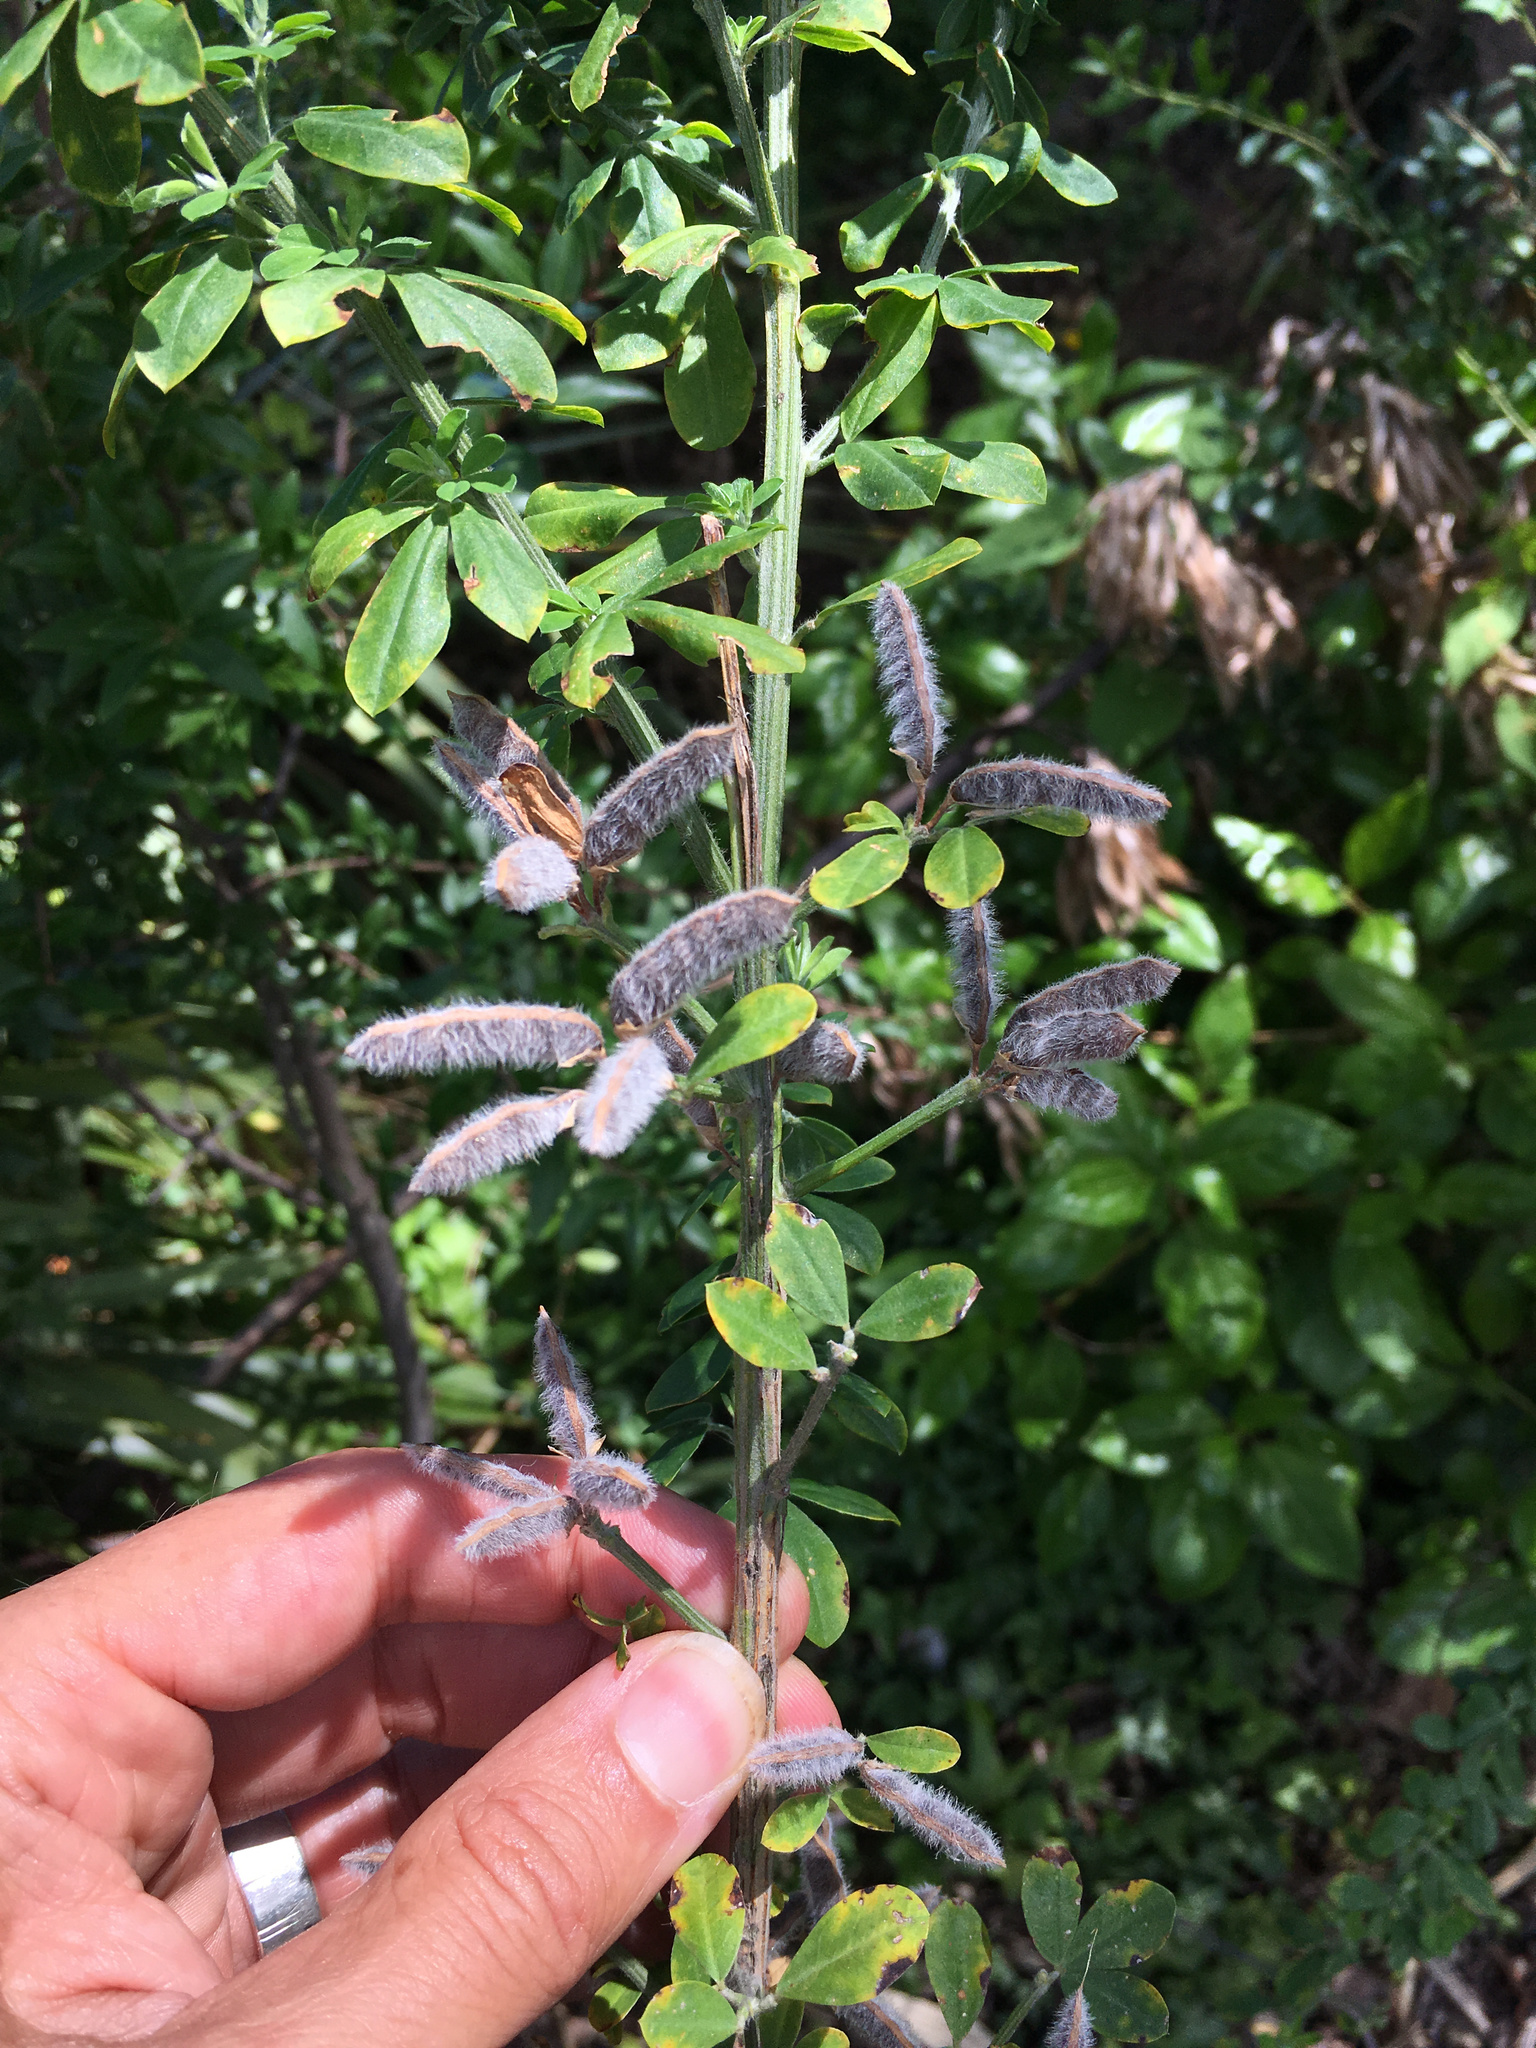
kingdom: Plantae
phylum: Tracheophyta
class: Magnoliopsida
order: Fabales
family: Fabaceae
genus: Cytisus
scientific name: Cytisus scoparius
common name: Scotch broom
